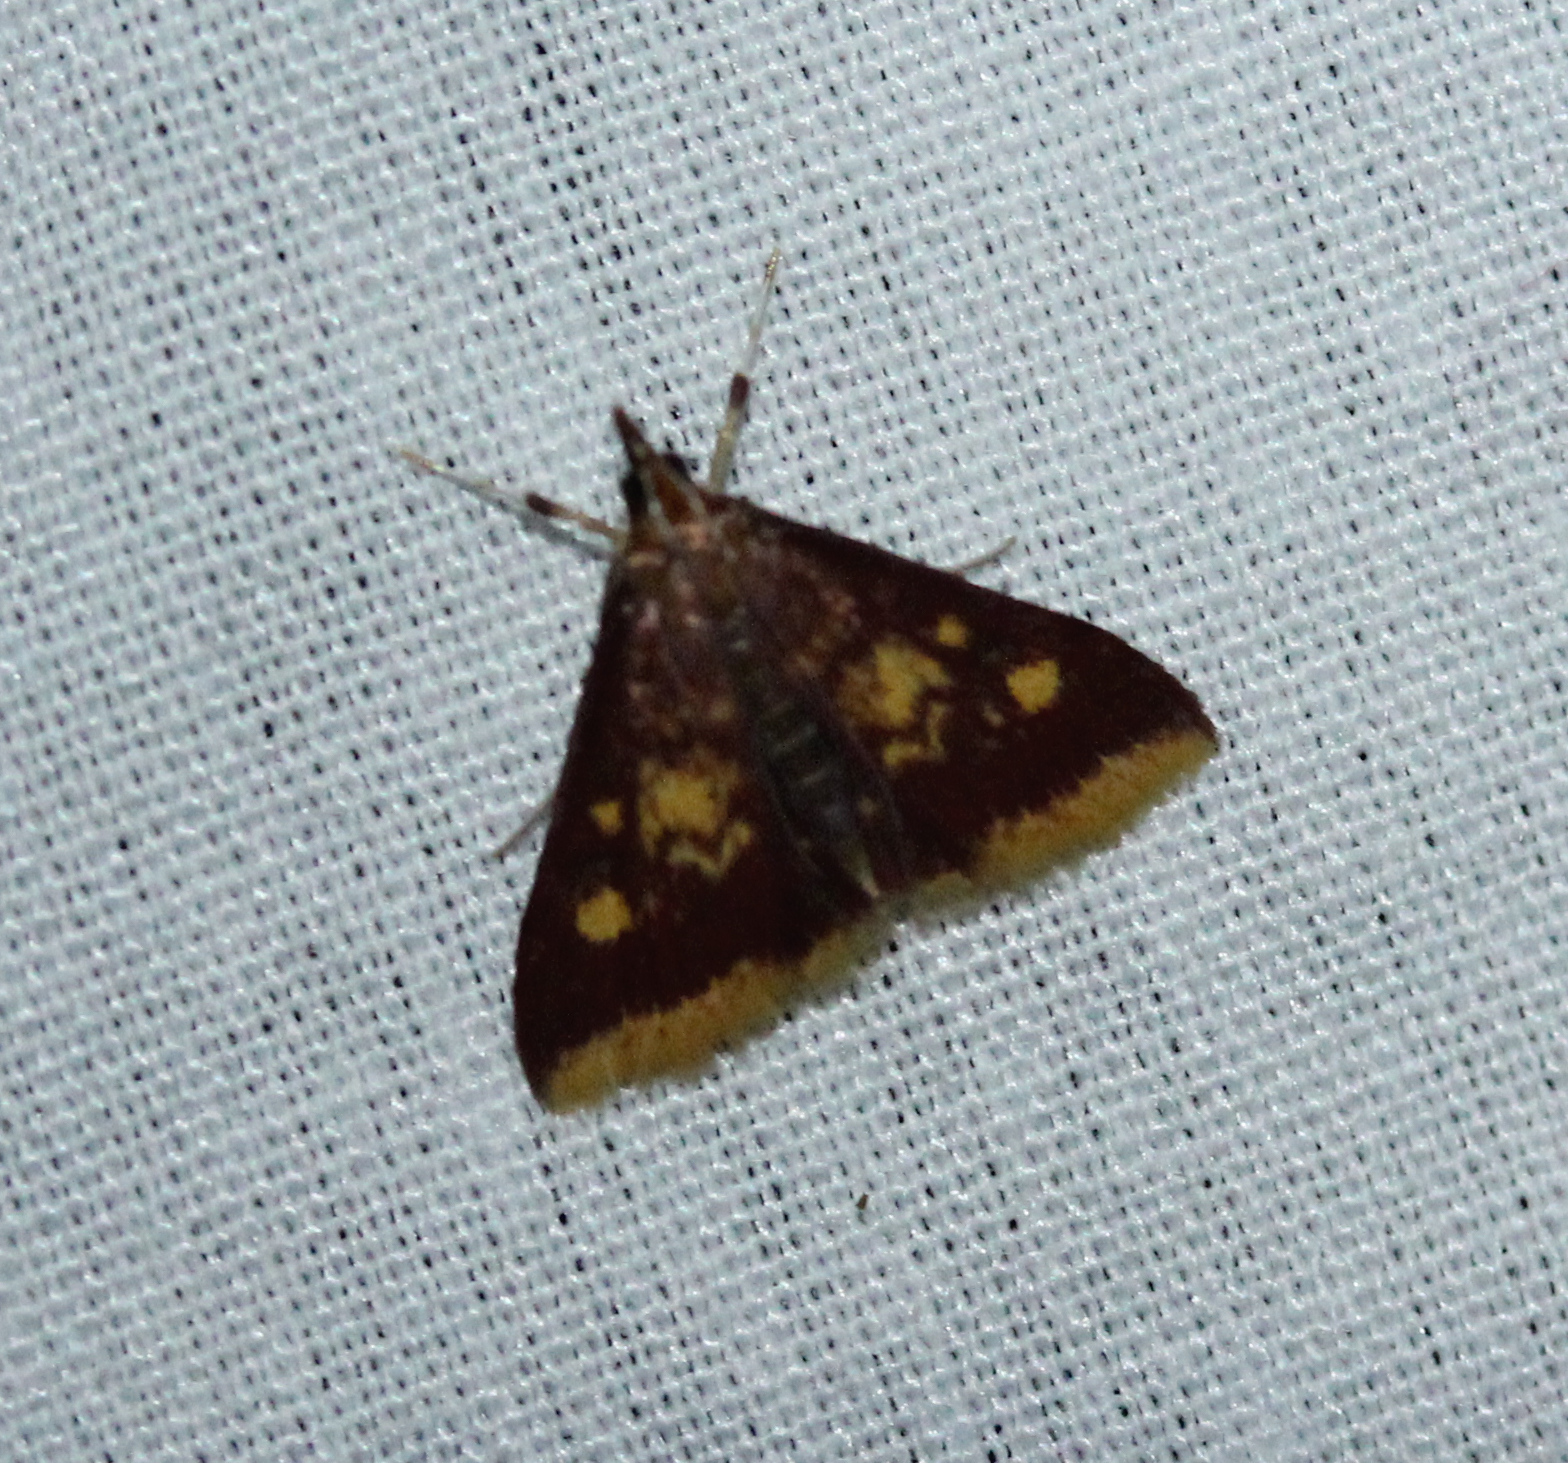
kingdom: Animalia
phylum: Arthropoda
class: Insecta
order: Lepidoptera
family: Crambidae
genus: Pyrausta
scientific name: Pyrausta acrionalis
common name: Mint-loving pyrausta moth
